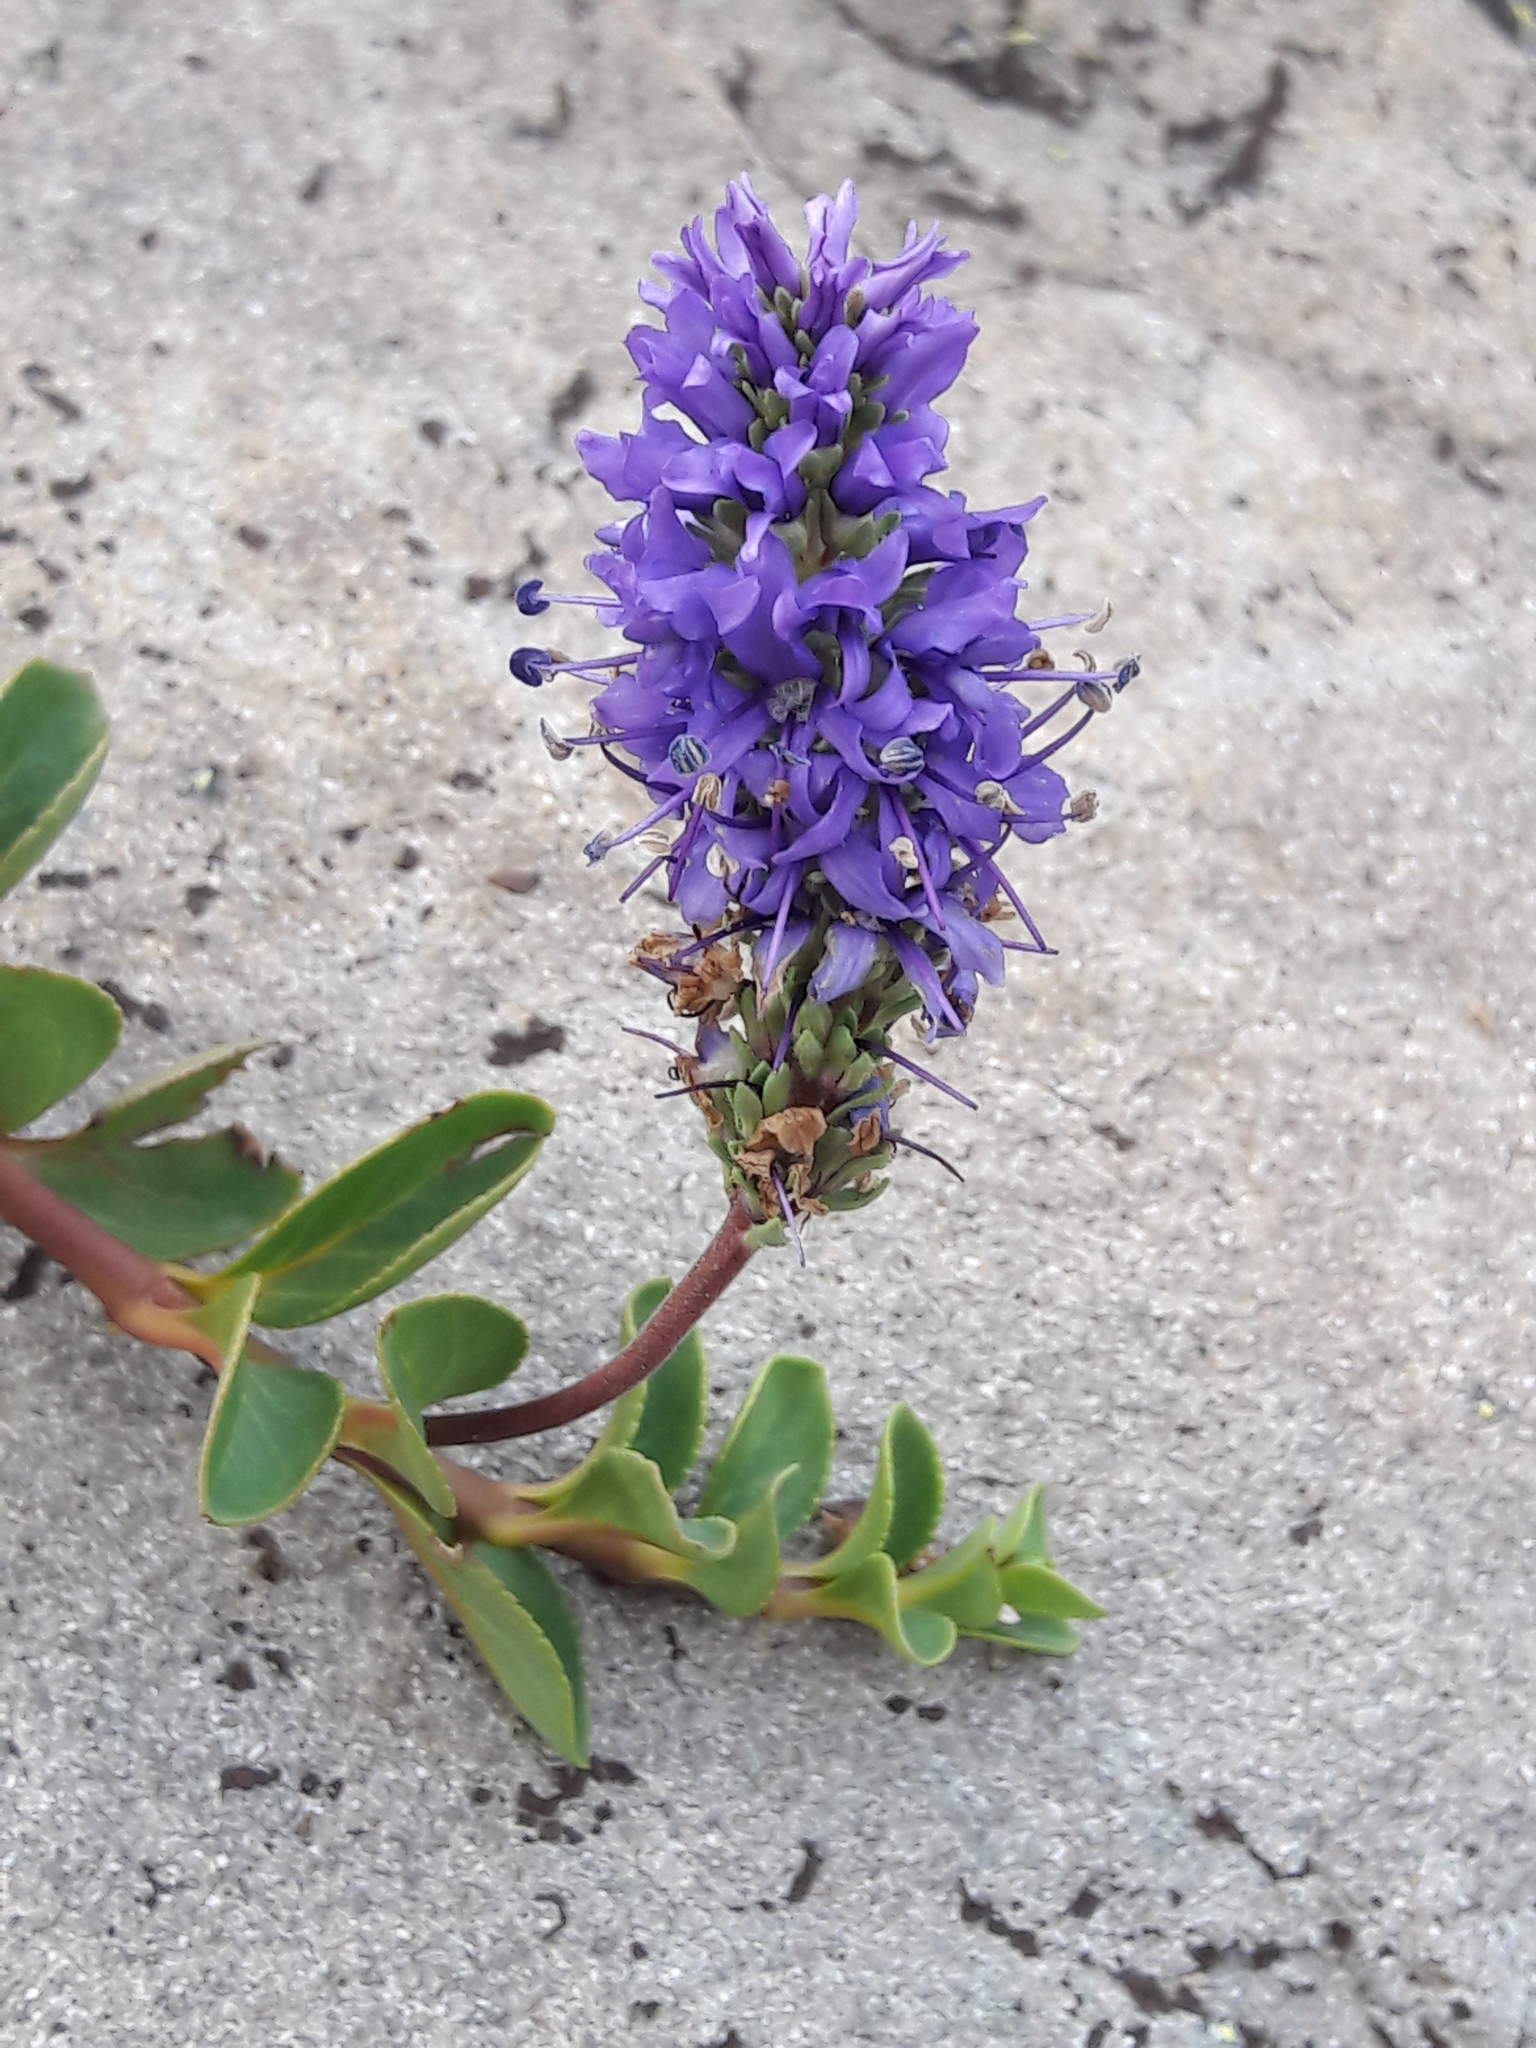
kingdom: Plantae
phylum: Tracheophyta
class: Magnoliopsida
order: Lamiales
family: Plantaginaceae
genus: Veronica
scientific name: Veronica allionii
